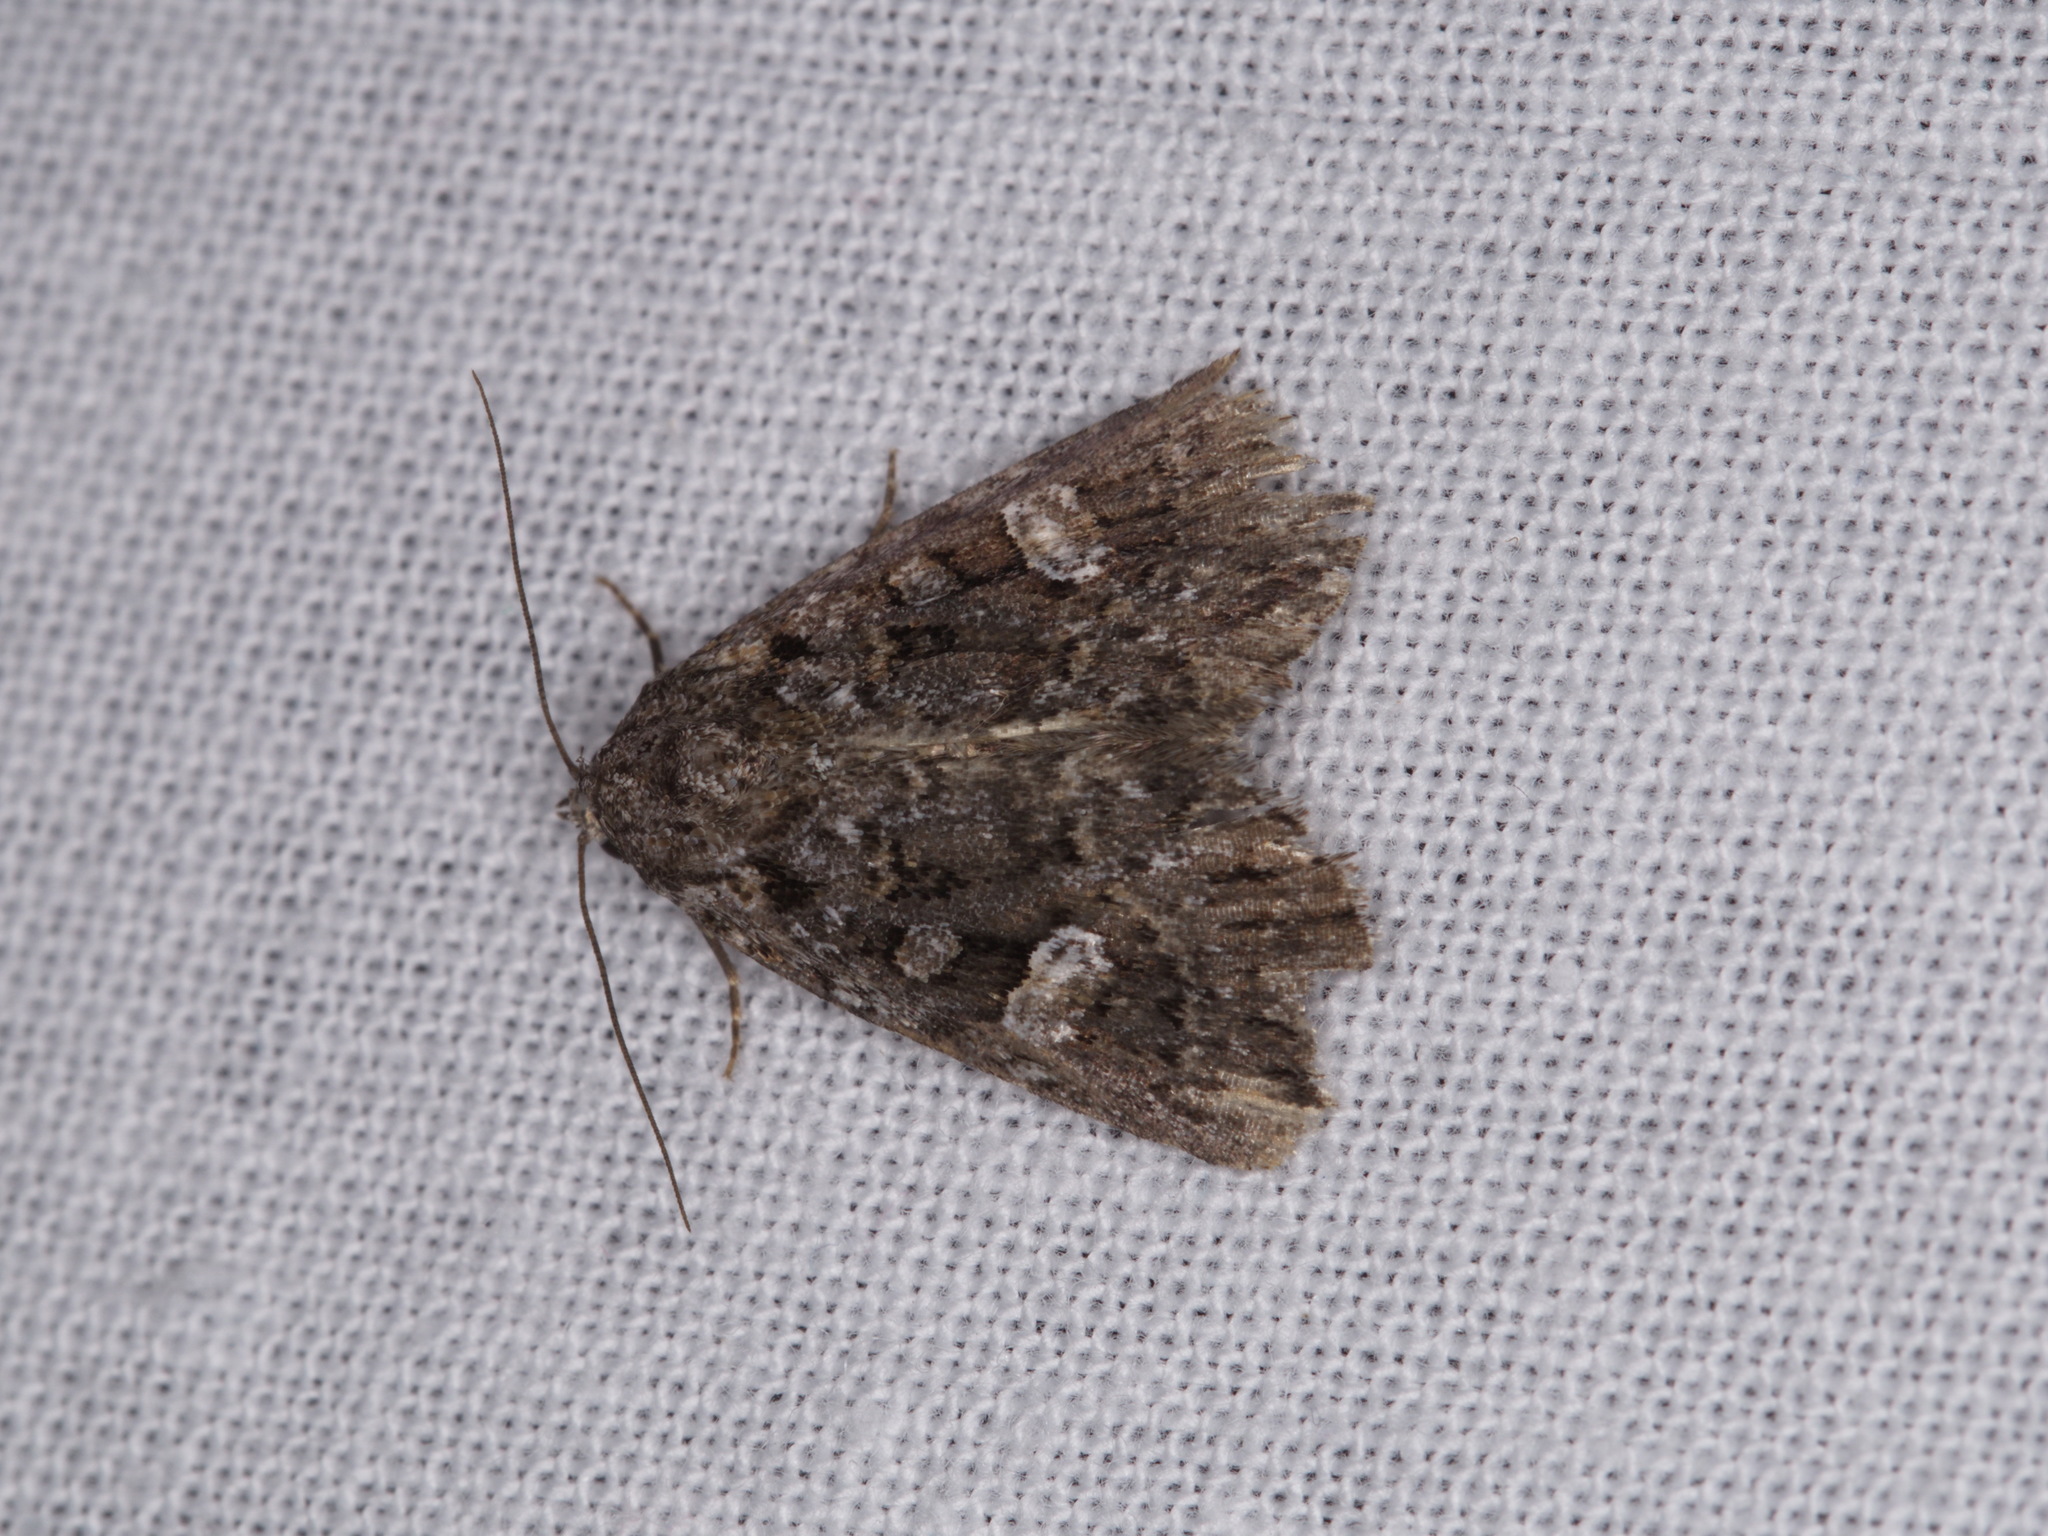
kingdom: Animalia
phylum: Arthropoda
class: Insecta
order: Lepidoptera
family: Noctuidae
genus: Condica
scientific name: Condica aroana
